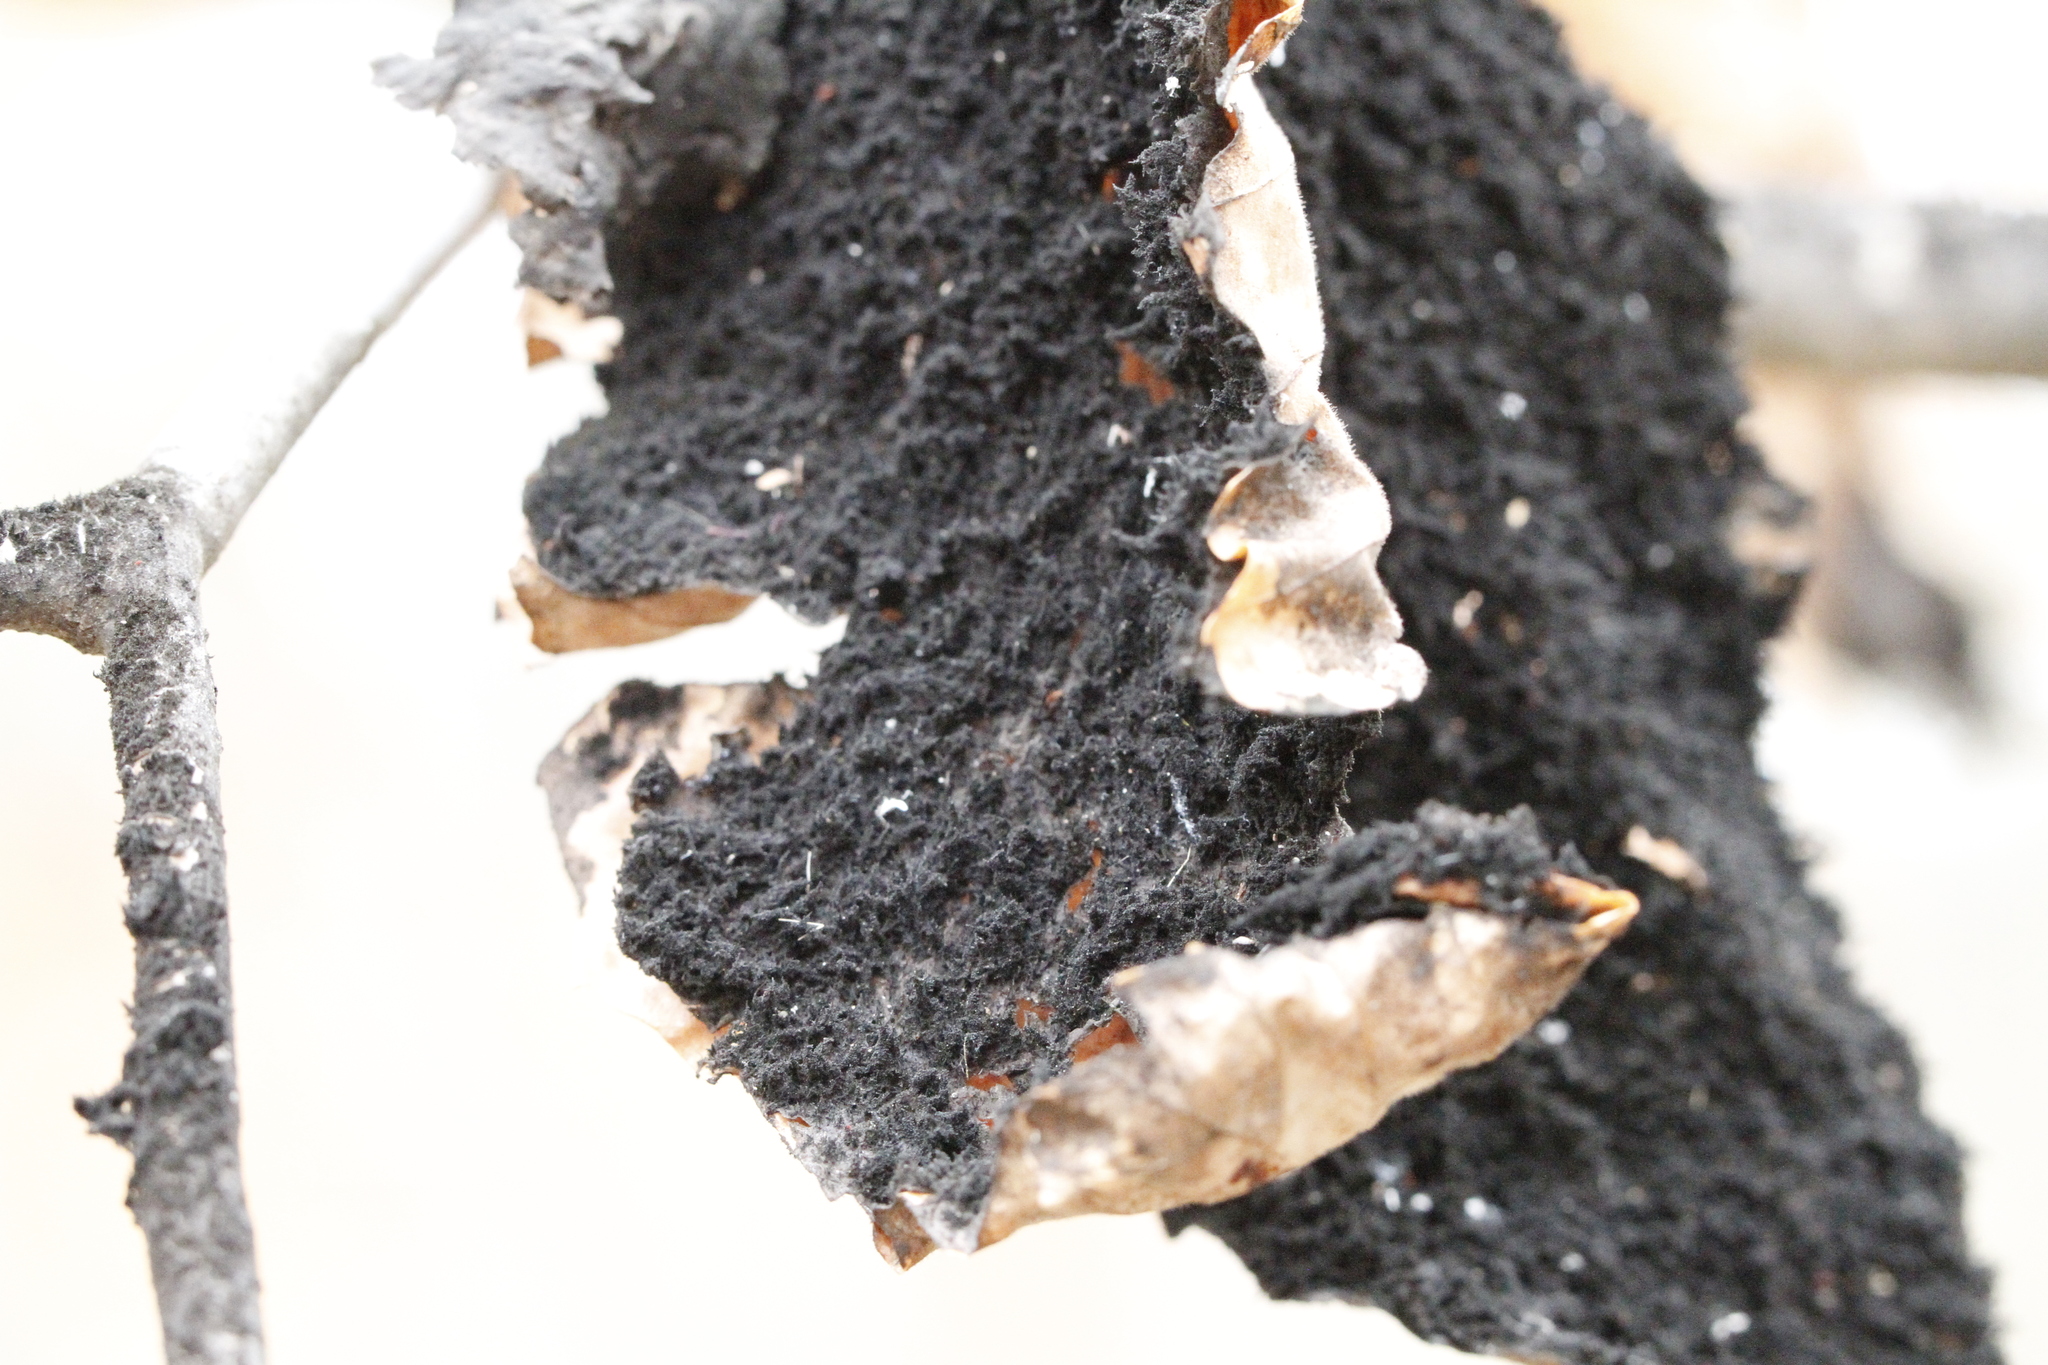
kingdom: Fungi
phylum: Ascomycota
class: Dothideomycetes
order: Capnodiales
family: Capnodiaceae
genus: Scorias
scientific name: Scorias spongiosa
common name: Black sooty mold
